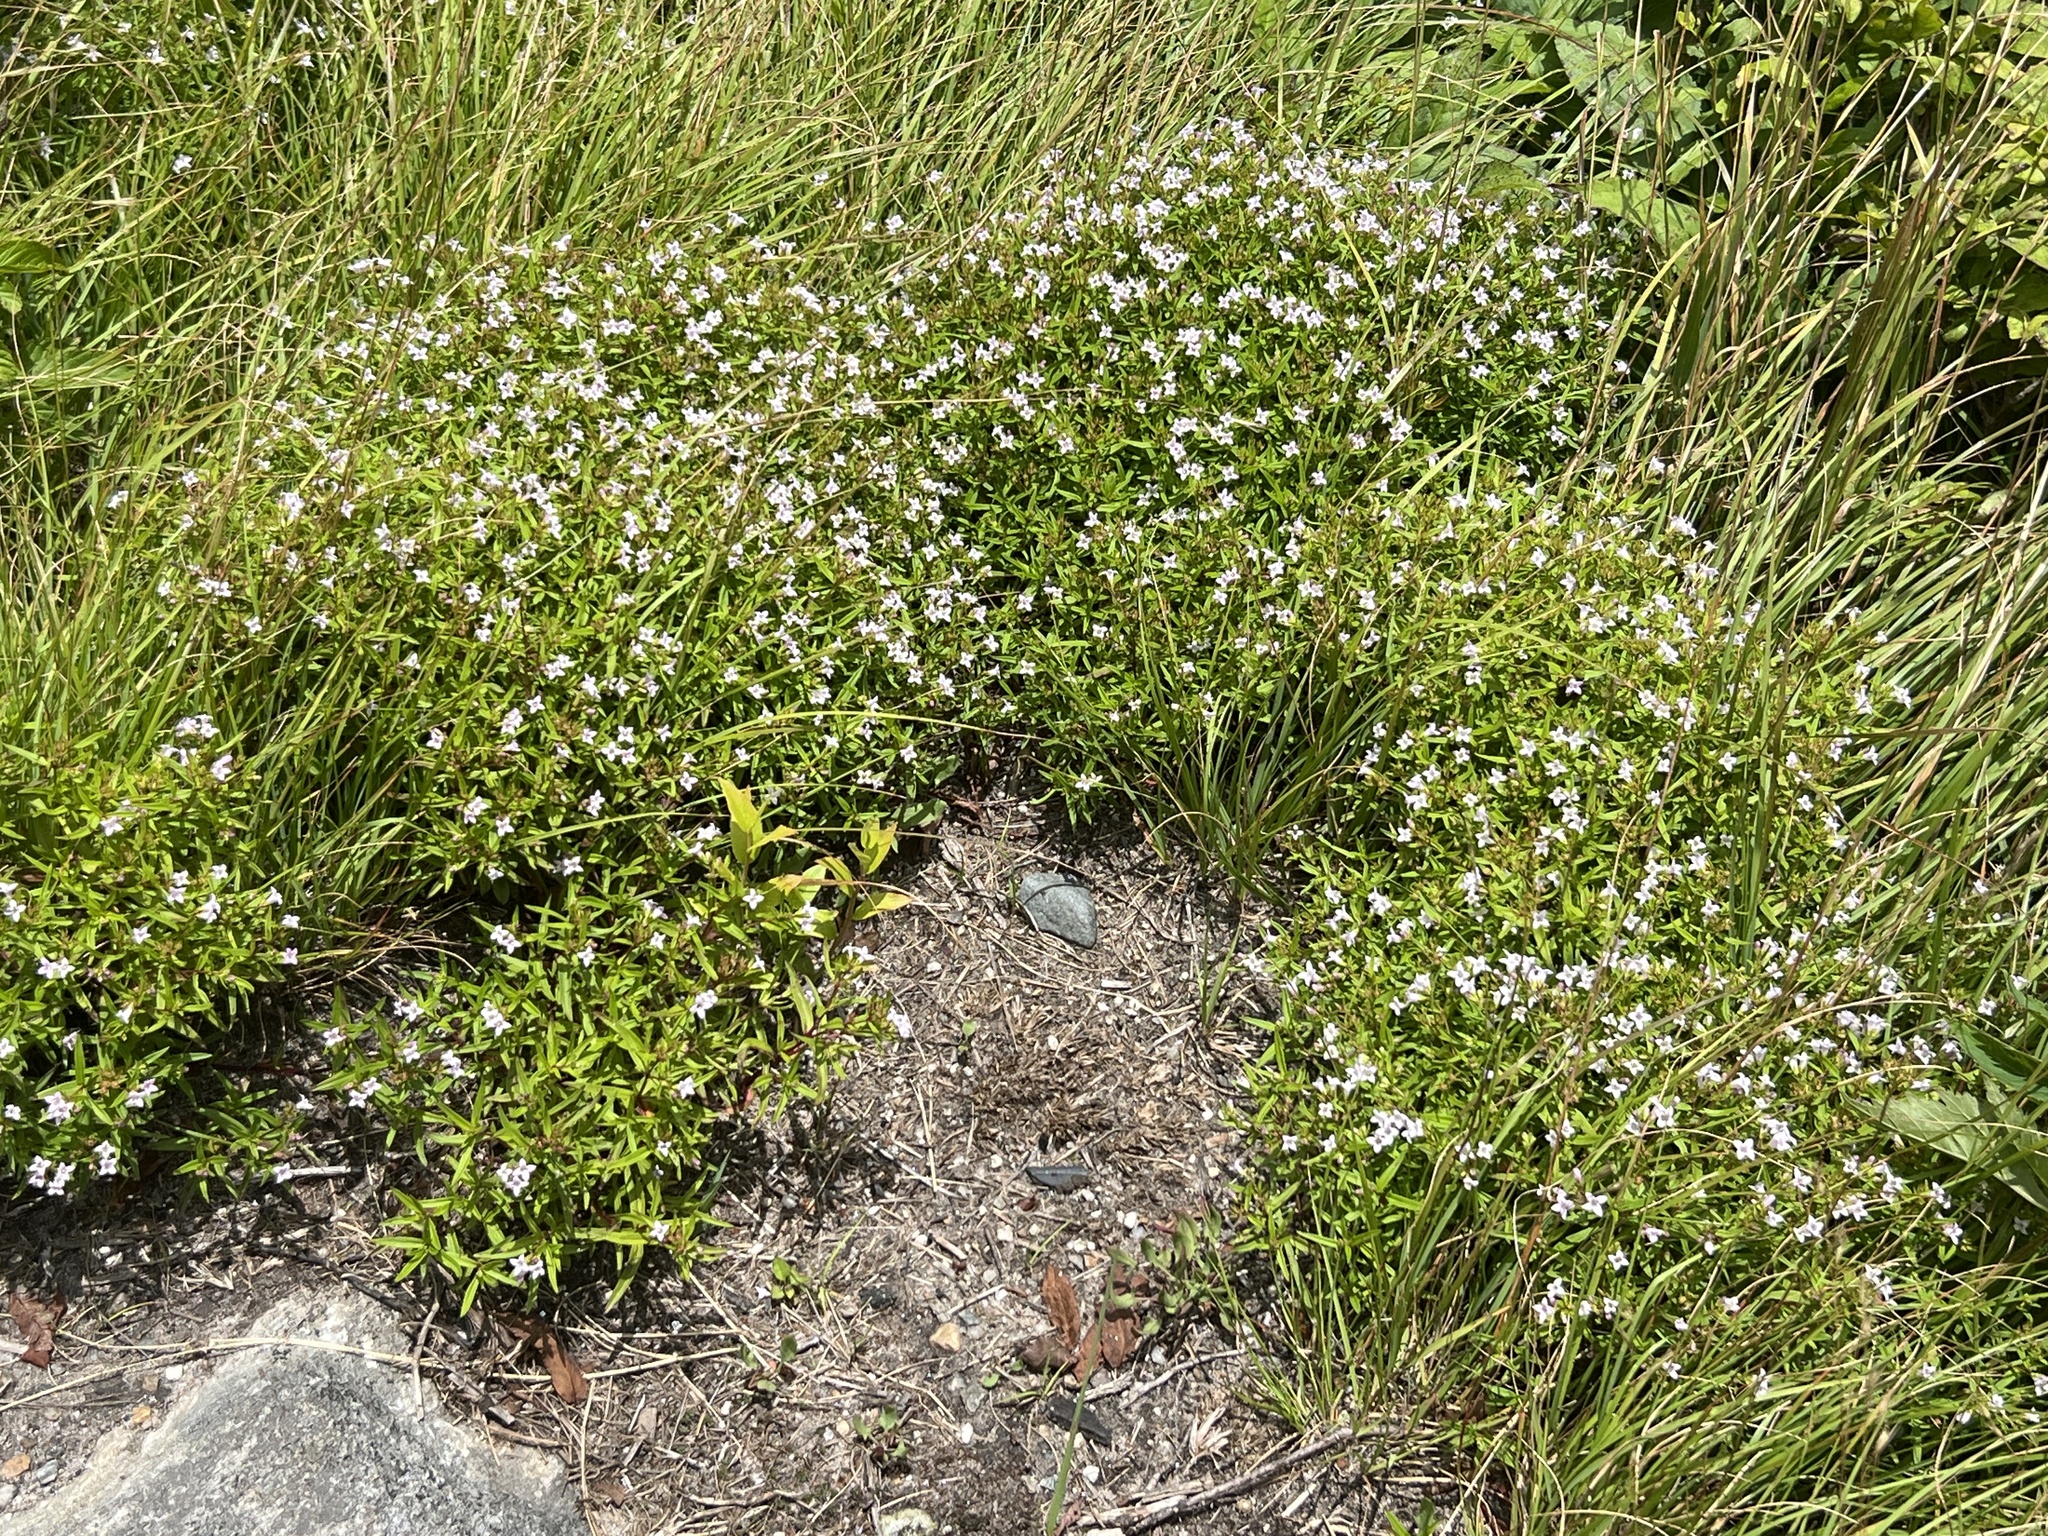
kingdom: Plantae
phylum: Tracheophyta
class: Magnoliopsida
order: Gentianales
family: Rubiaceae
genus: Houstonia
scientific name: Houstonia longifolia
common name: Long-leaved bluets
